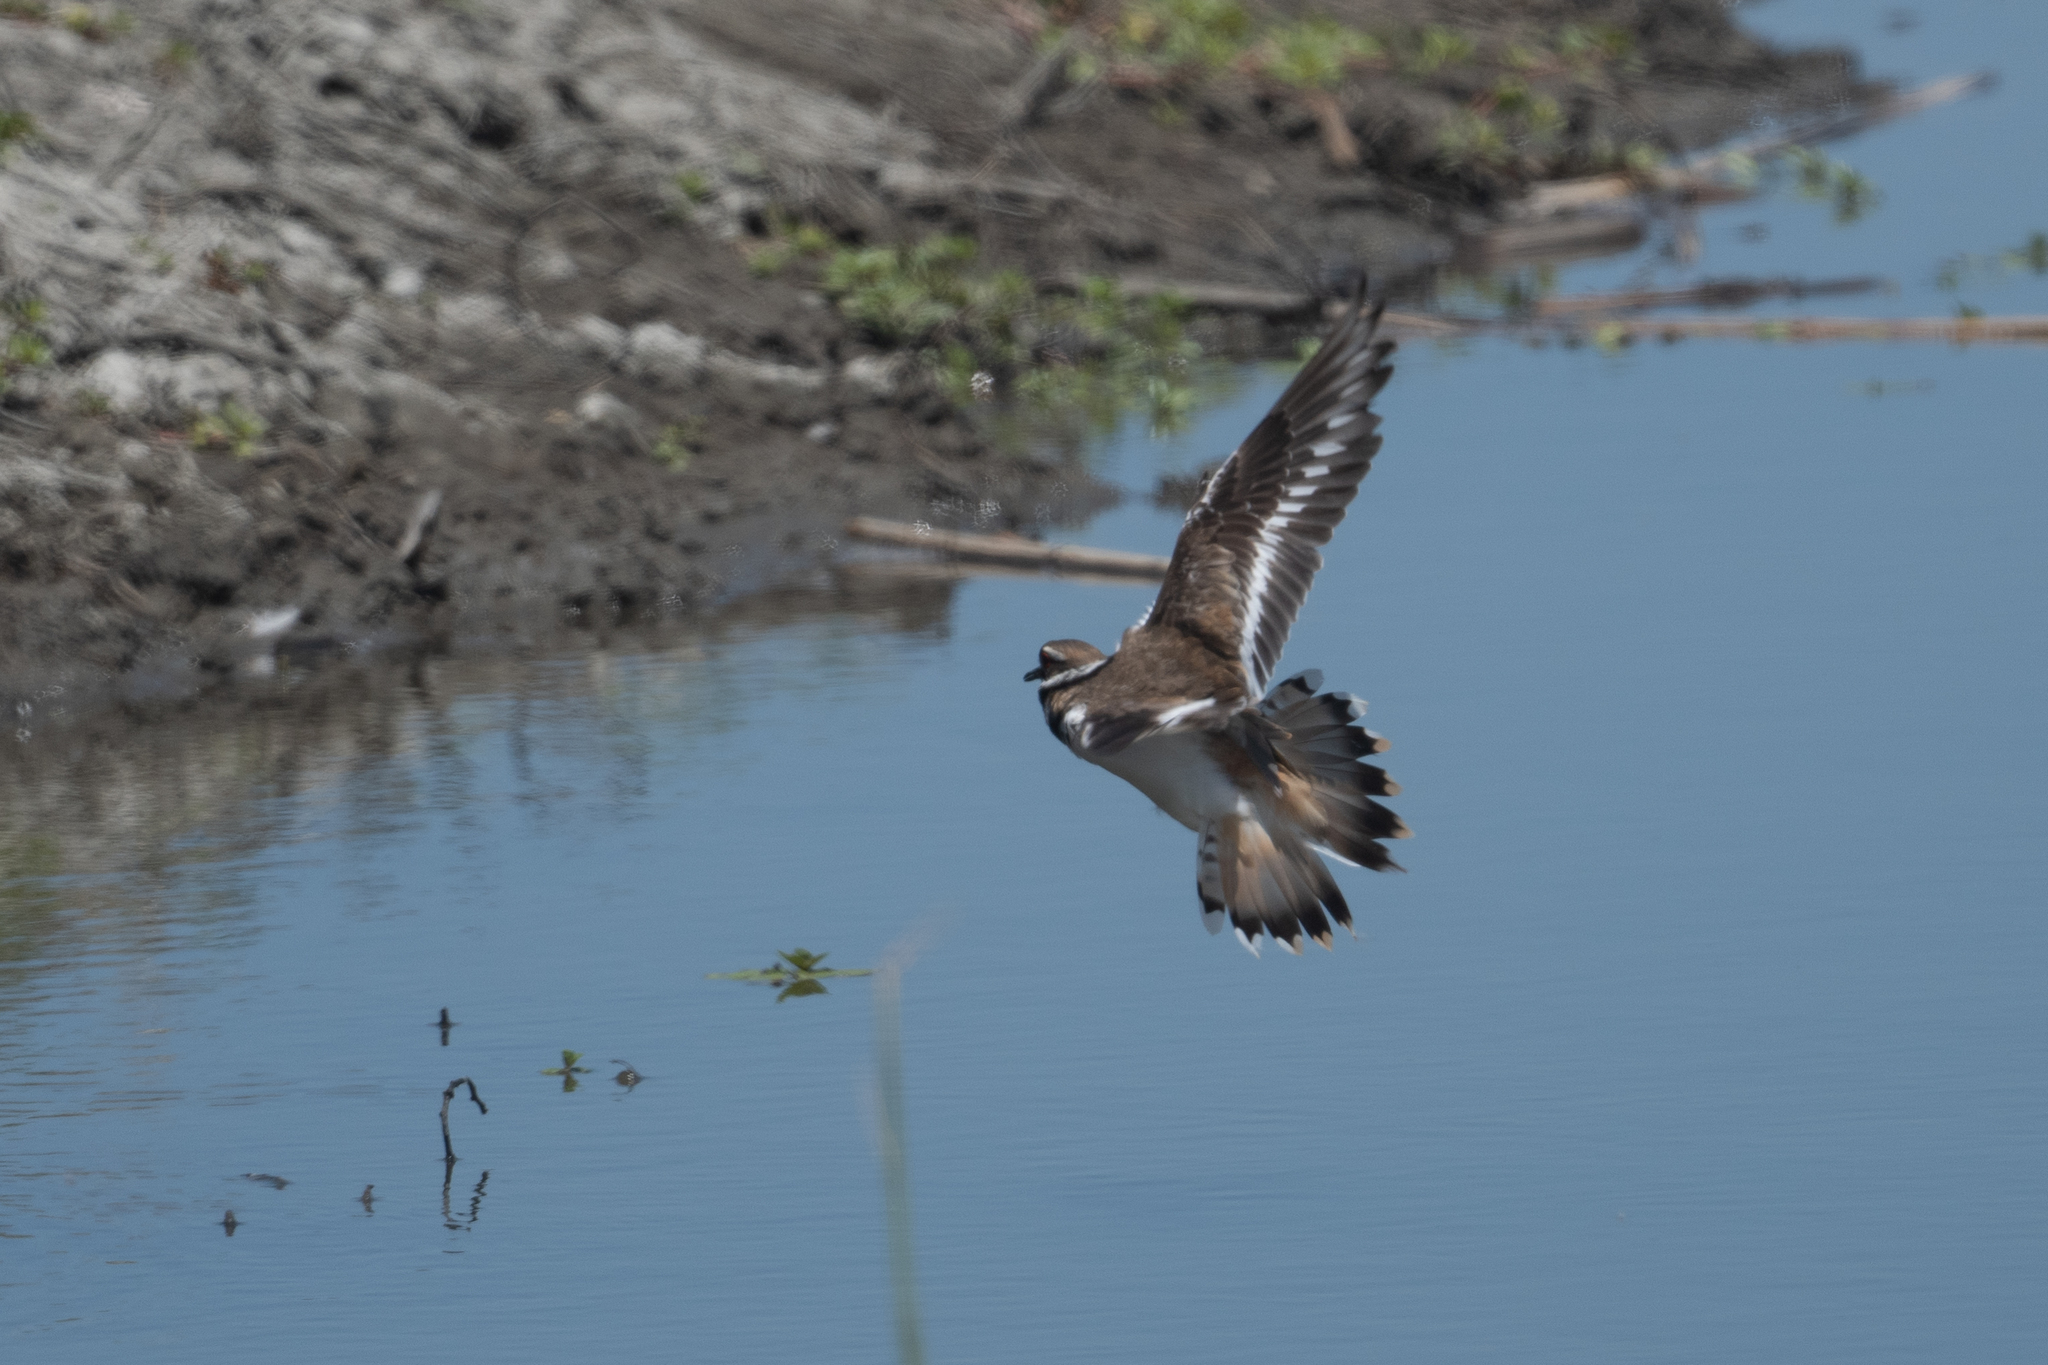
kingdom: Animalia
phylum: Chordata
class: Aves
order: Charadriiformes
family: Charadriidae
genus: Charadrius
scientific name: Charadrius vociferus
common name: Killdeer
